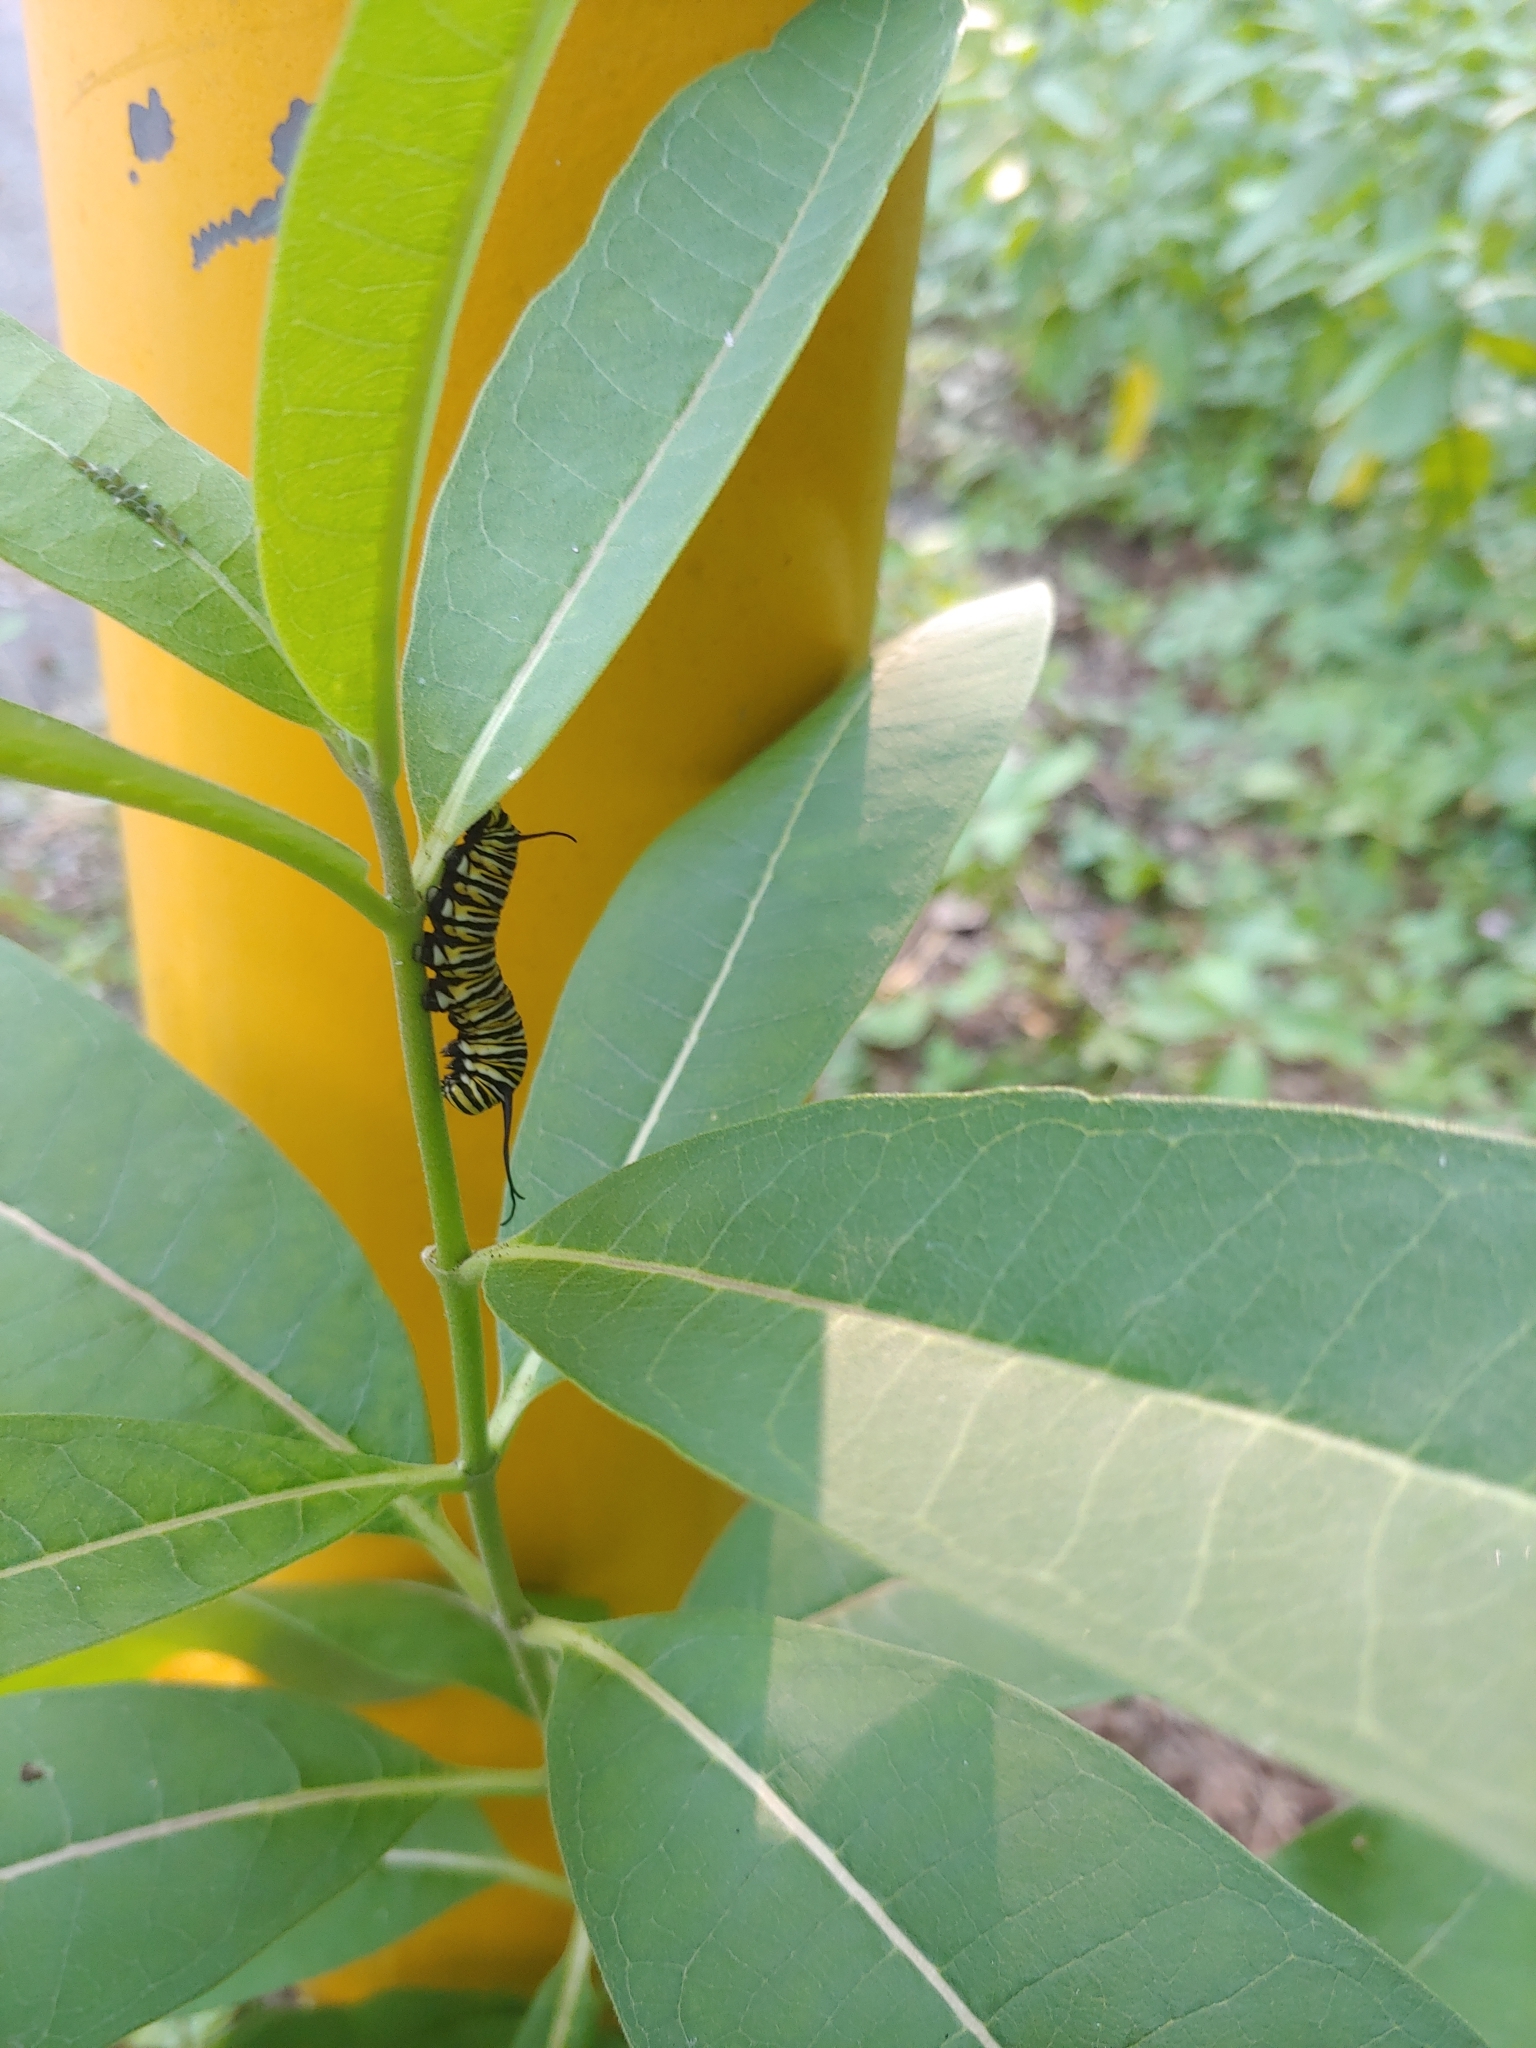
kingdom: Animalia
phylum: Arthropoda
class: Insecta
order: Lepidoptera
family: Nymphalidae
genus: Danaus
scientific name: Danaus plexippus
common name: Monarch
